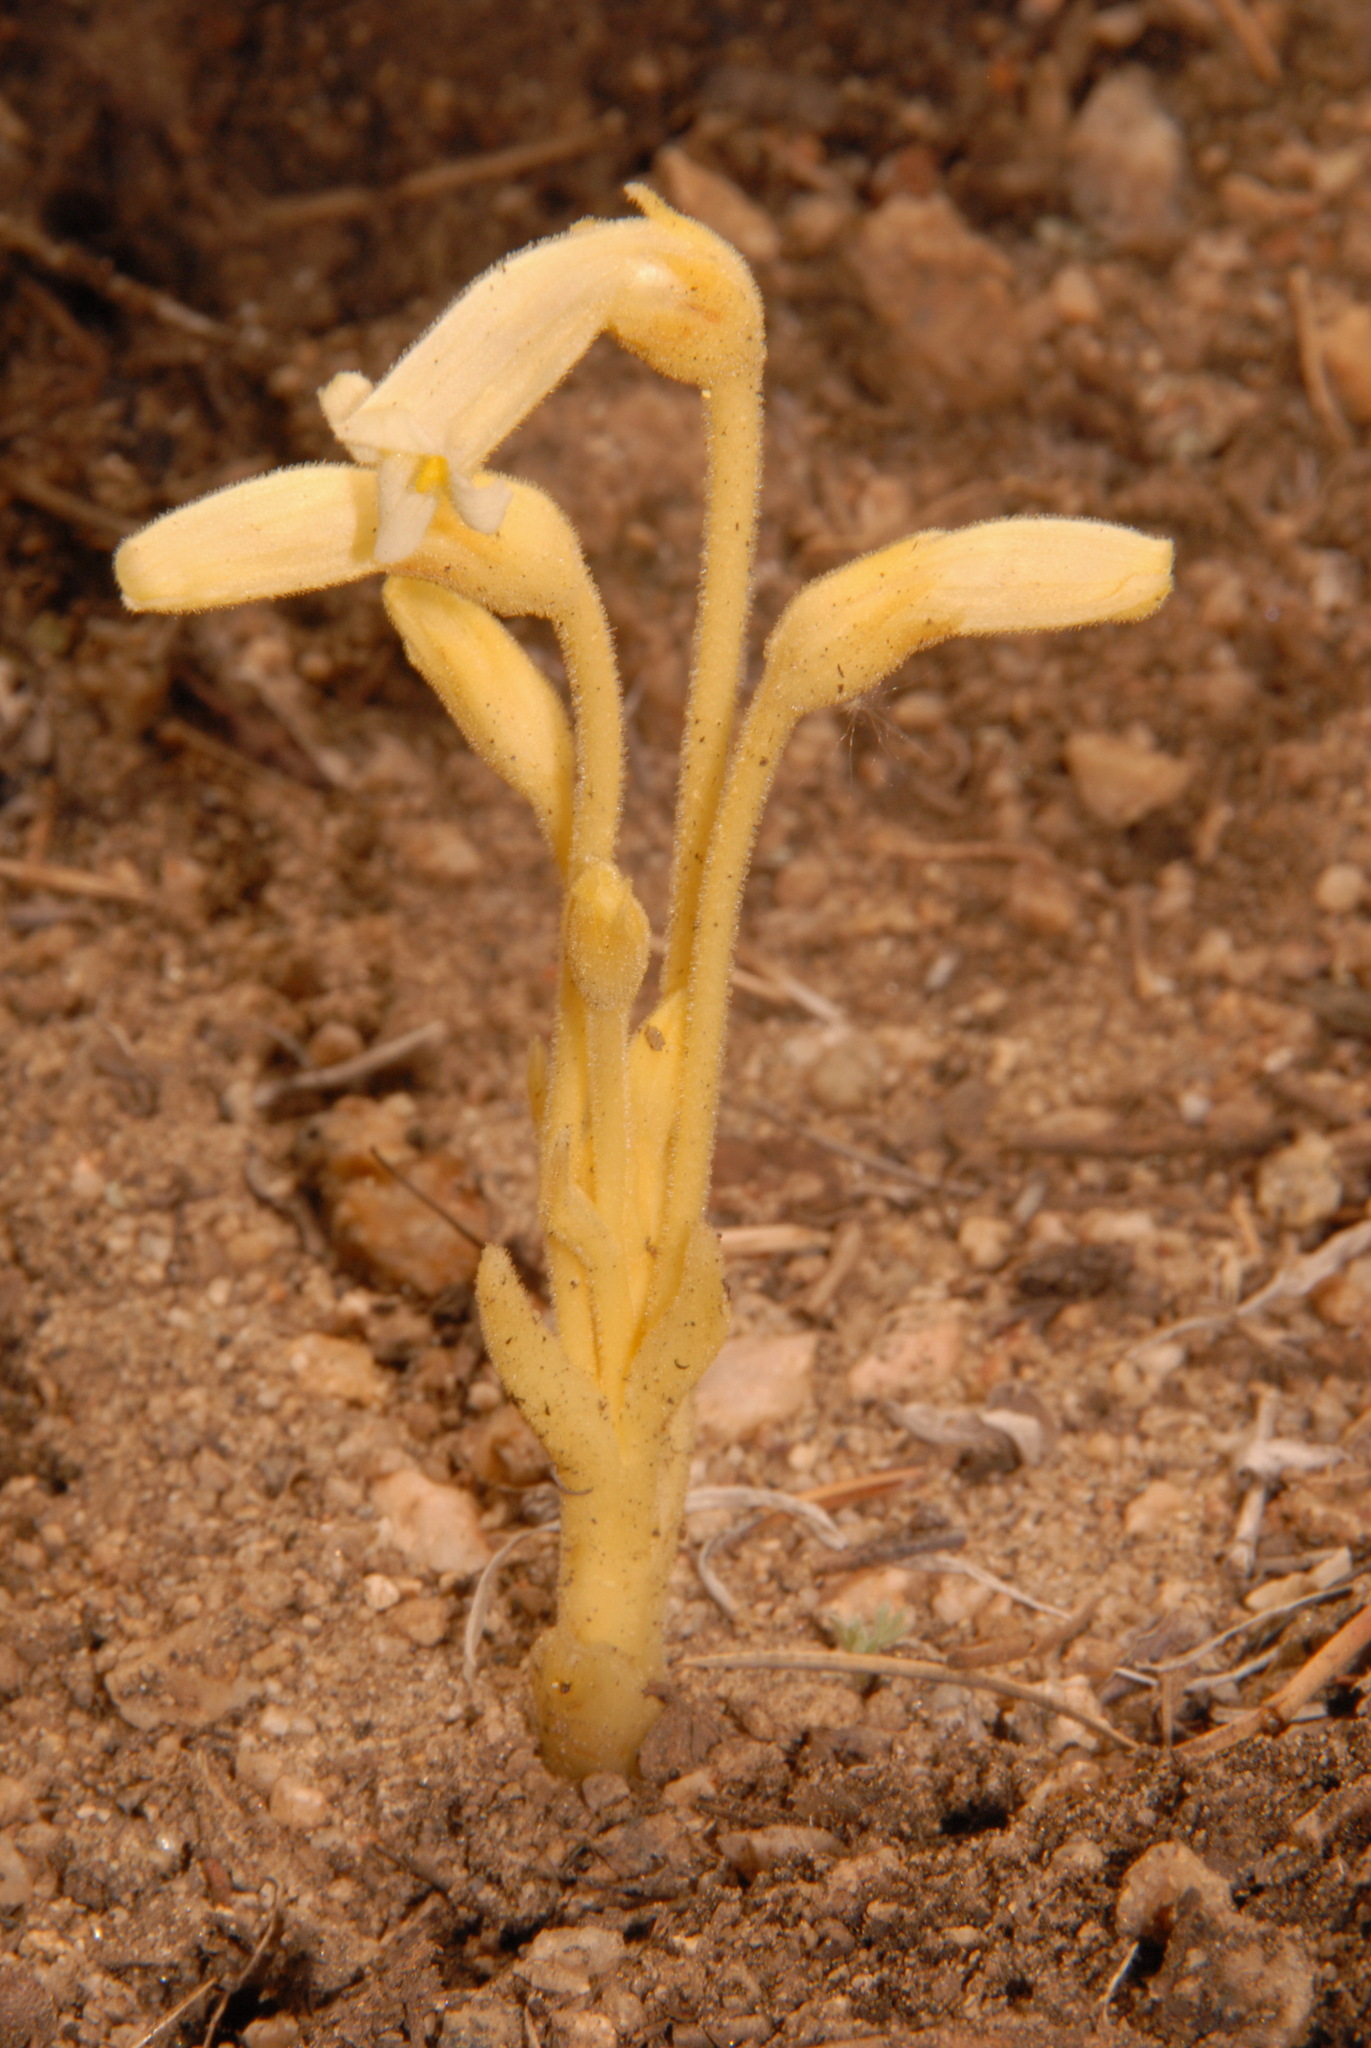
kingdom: Plantae
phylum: Tracheophyta
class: Magnoliopsida
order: Lamiales
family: Orobanchaceae
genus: Aphyllon
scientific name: Aphyllon fasciculatum
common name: Clustered broomrape
